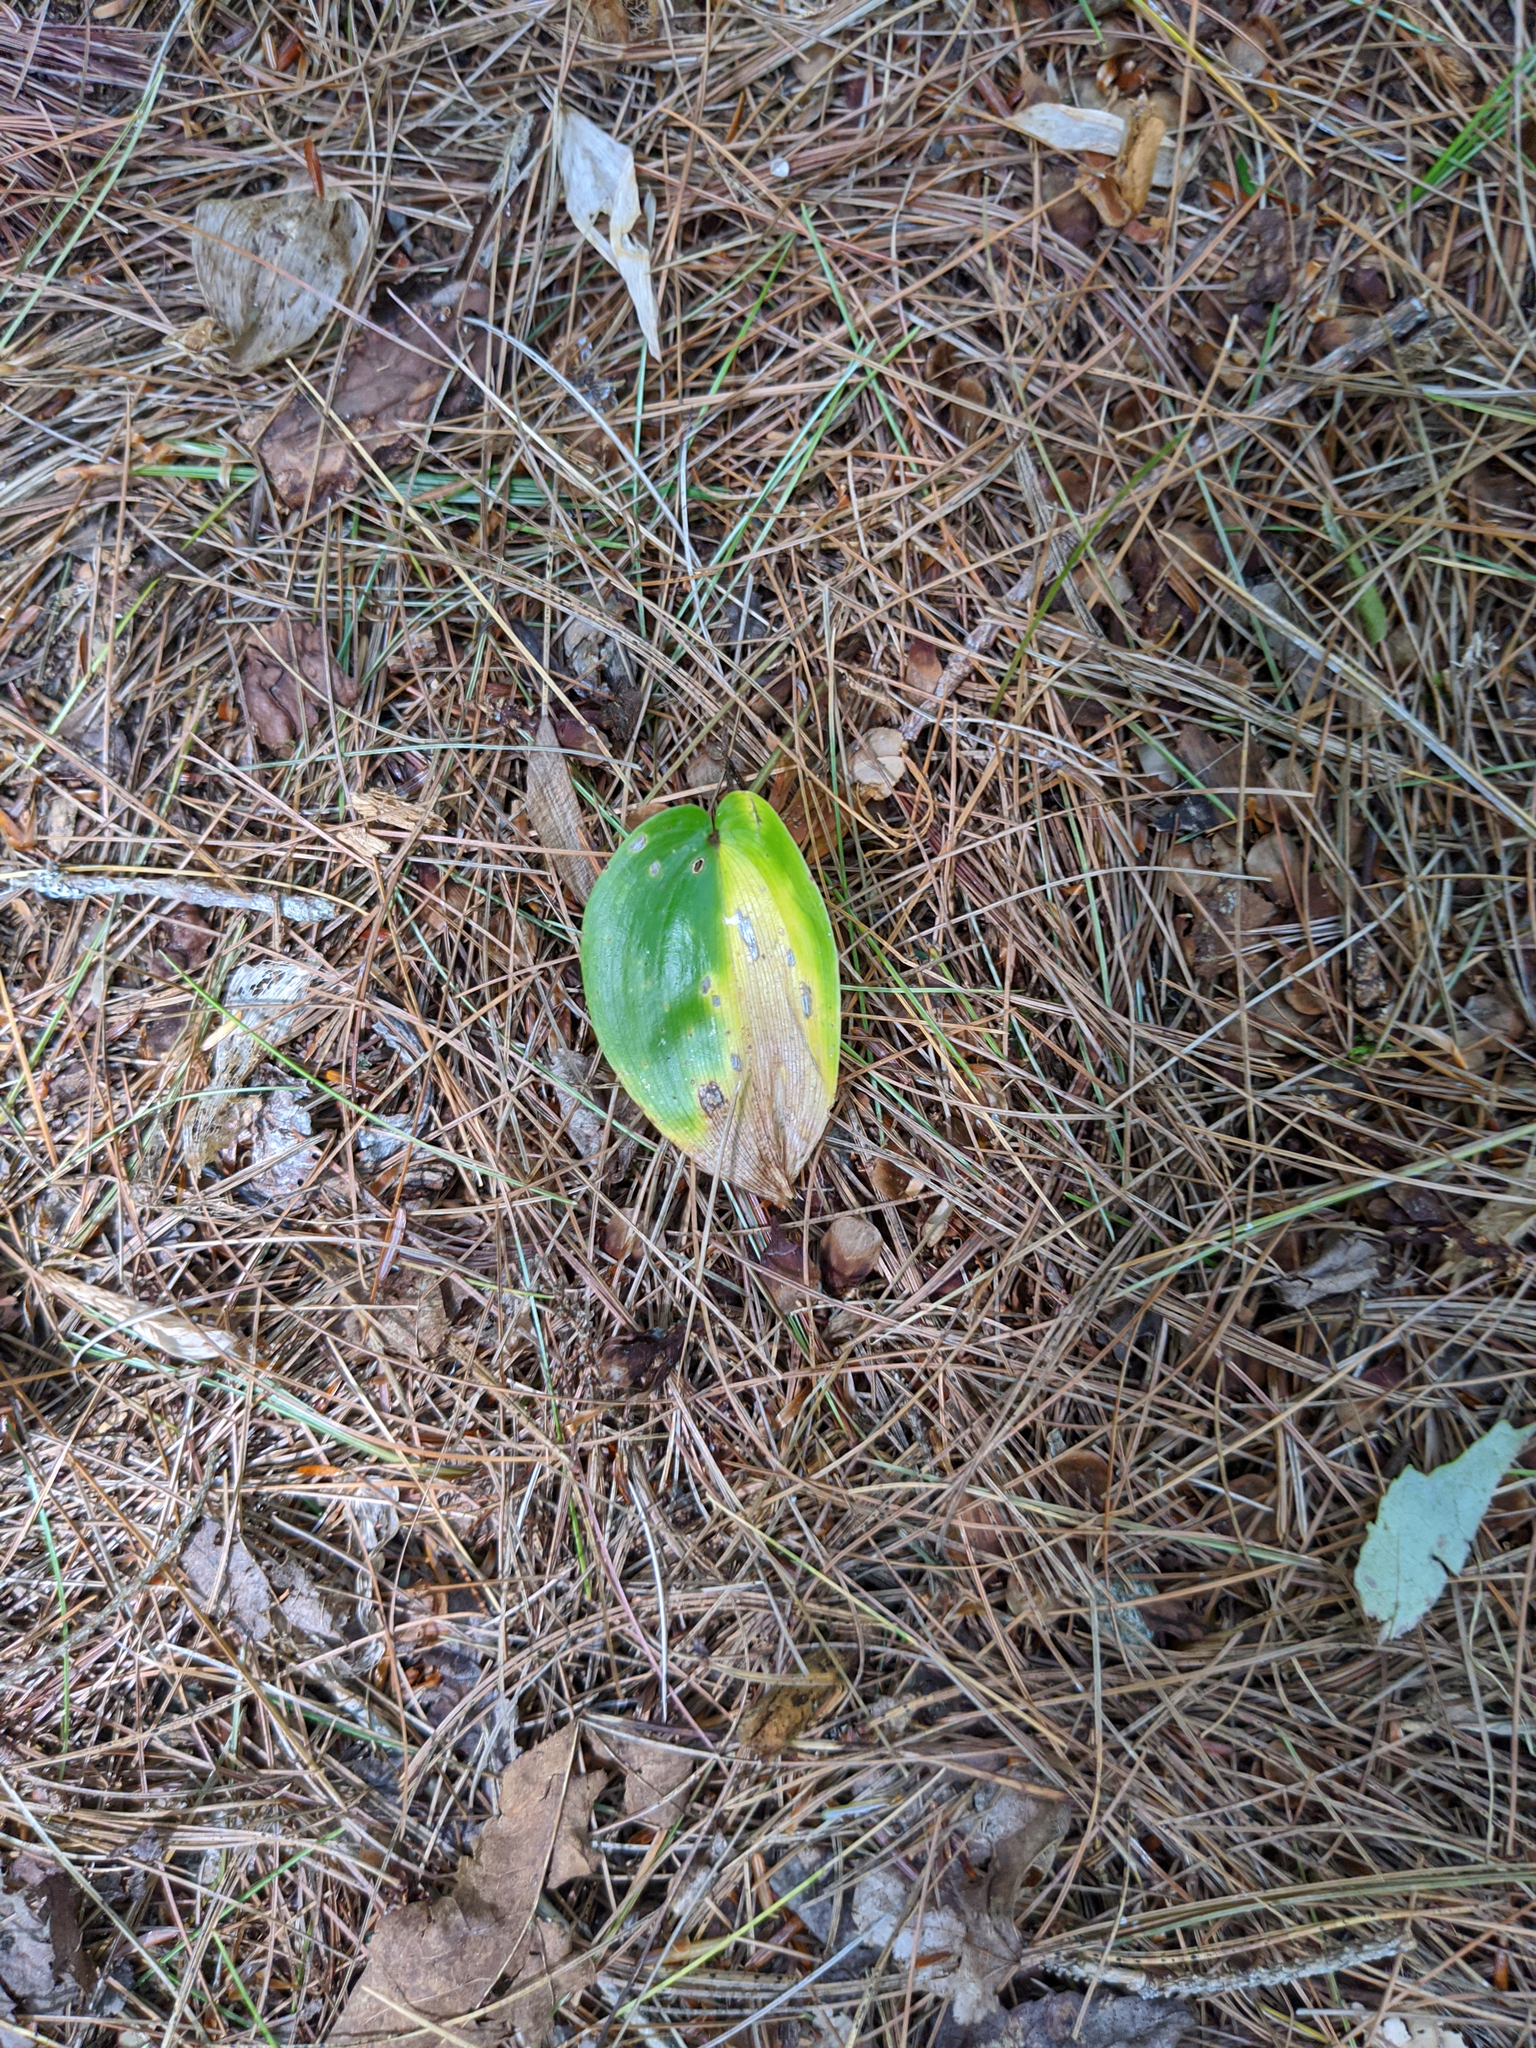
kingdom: Plantae
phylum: Tracheophyta
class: Liliopsida
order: Asparagales
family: Asparagaceae
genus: Maianthemum
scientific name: Maianthemum canadense
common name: False lily-of-the-valley
